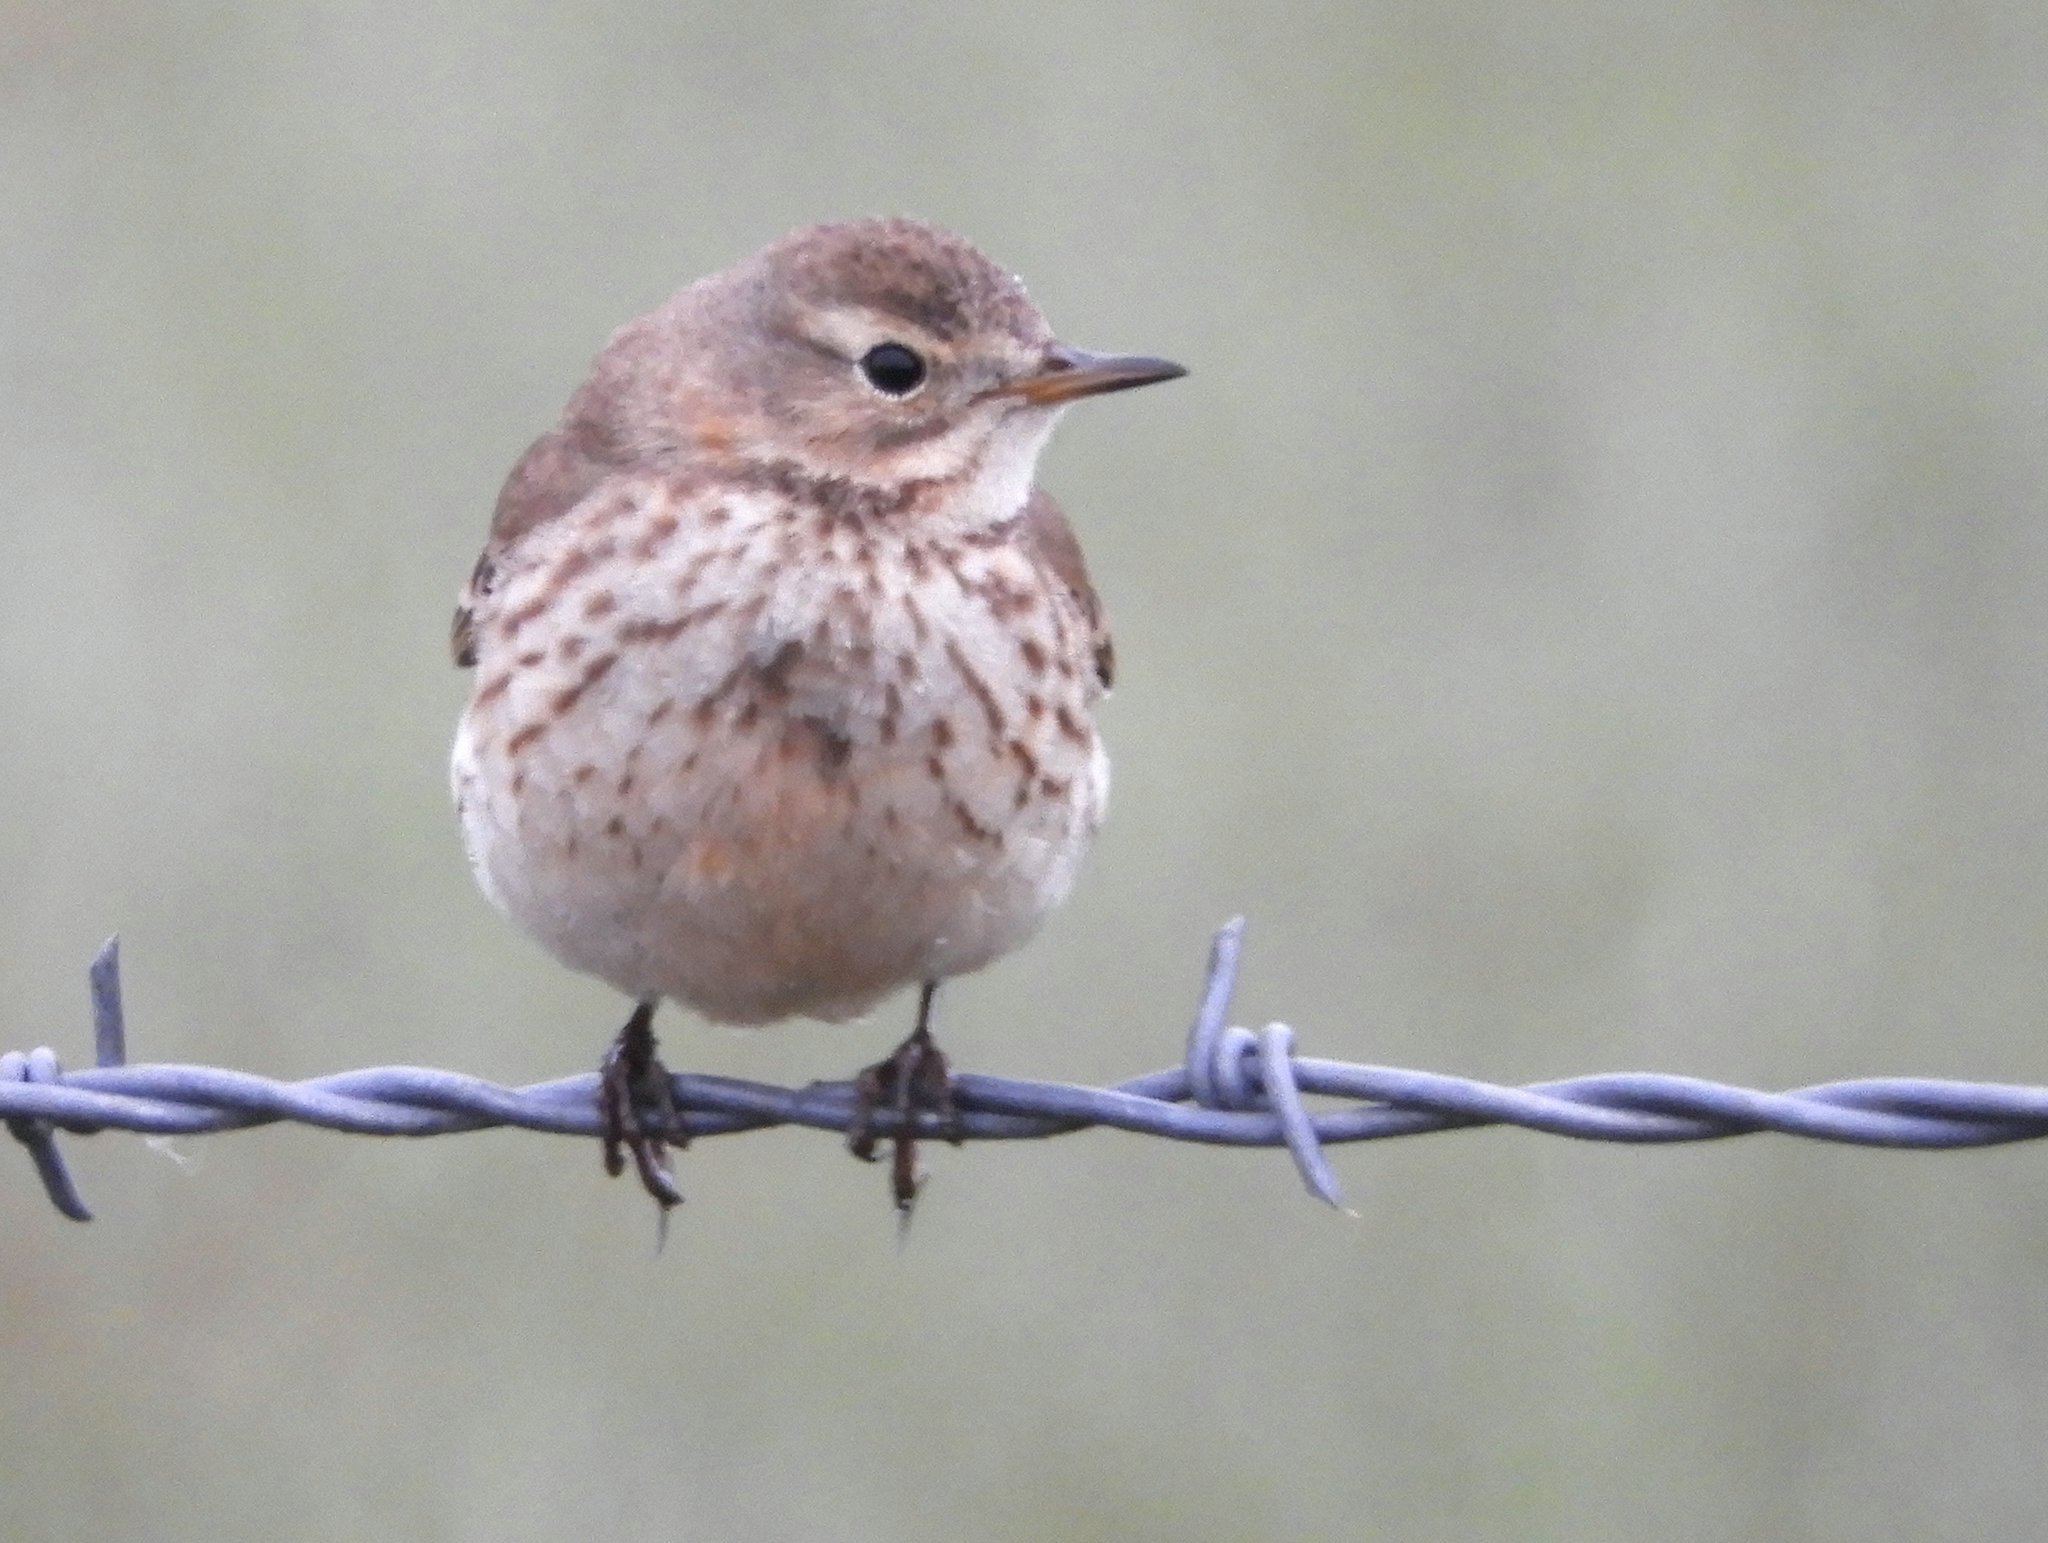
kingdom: Animalia
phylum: Chordata
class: Aves
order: Passeriformes
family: Motacillidae
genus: Anthus
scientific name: Anthus rubescens
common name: Buff-bellied pipit
